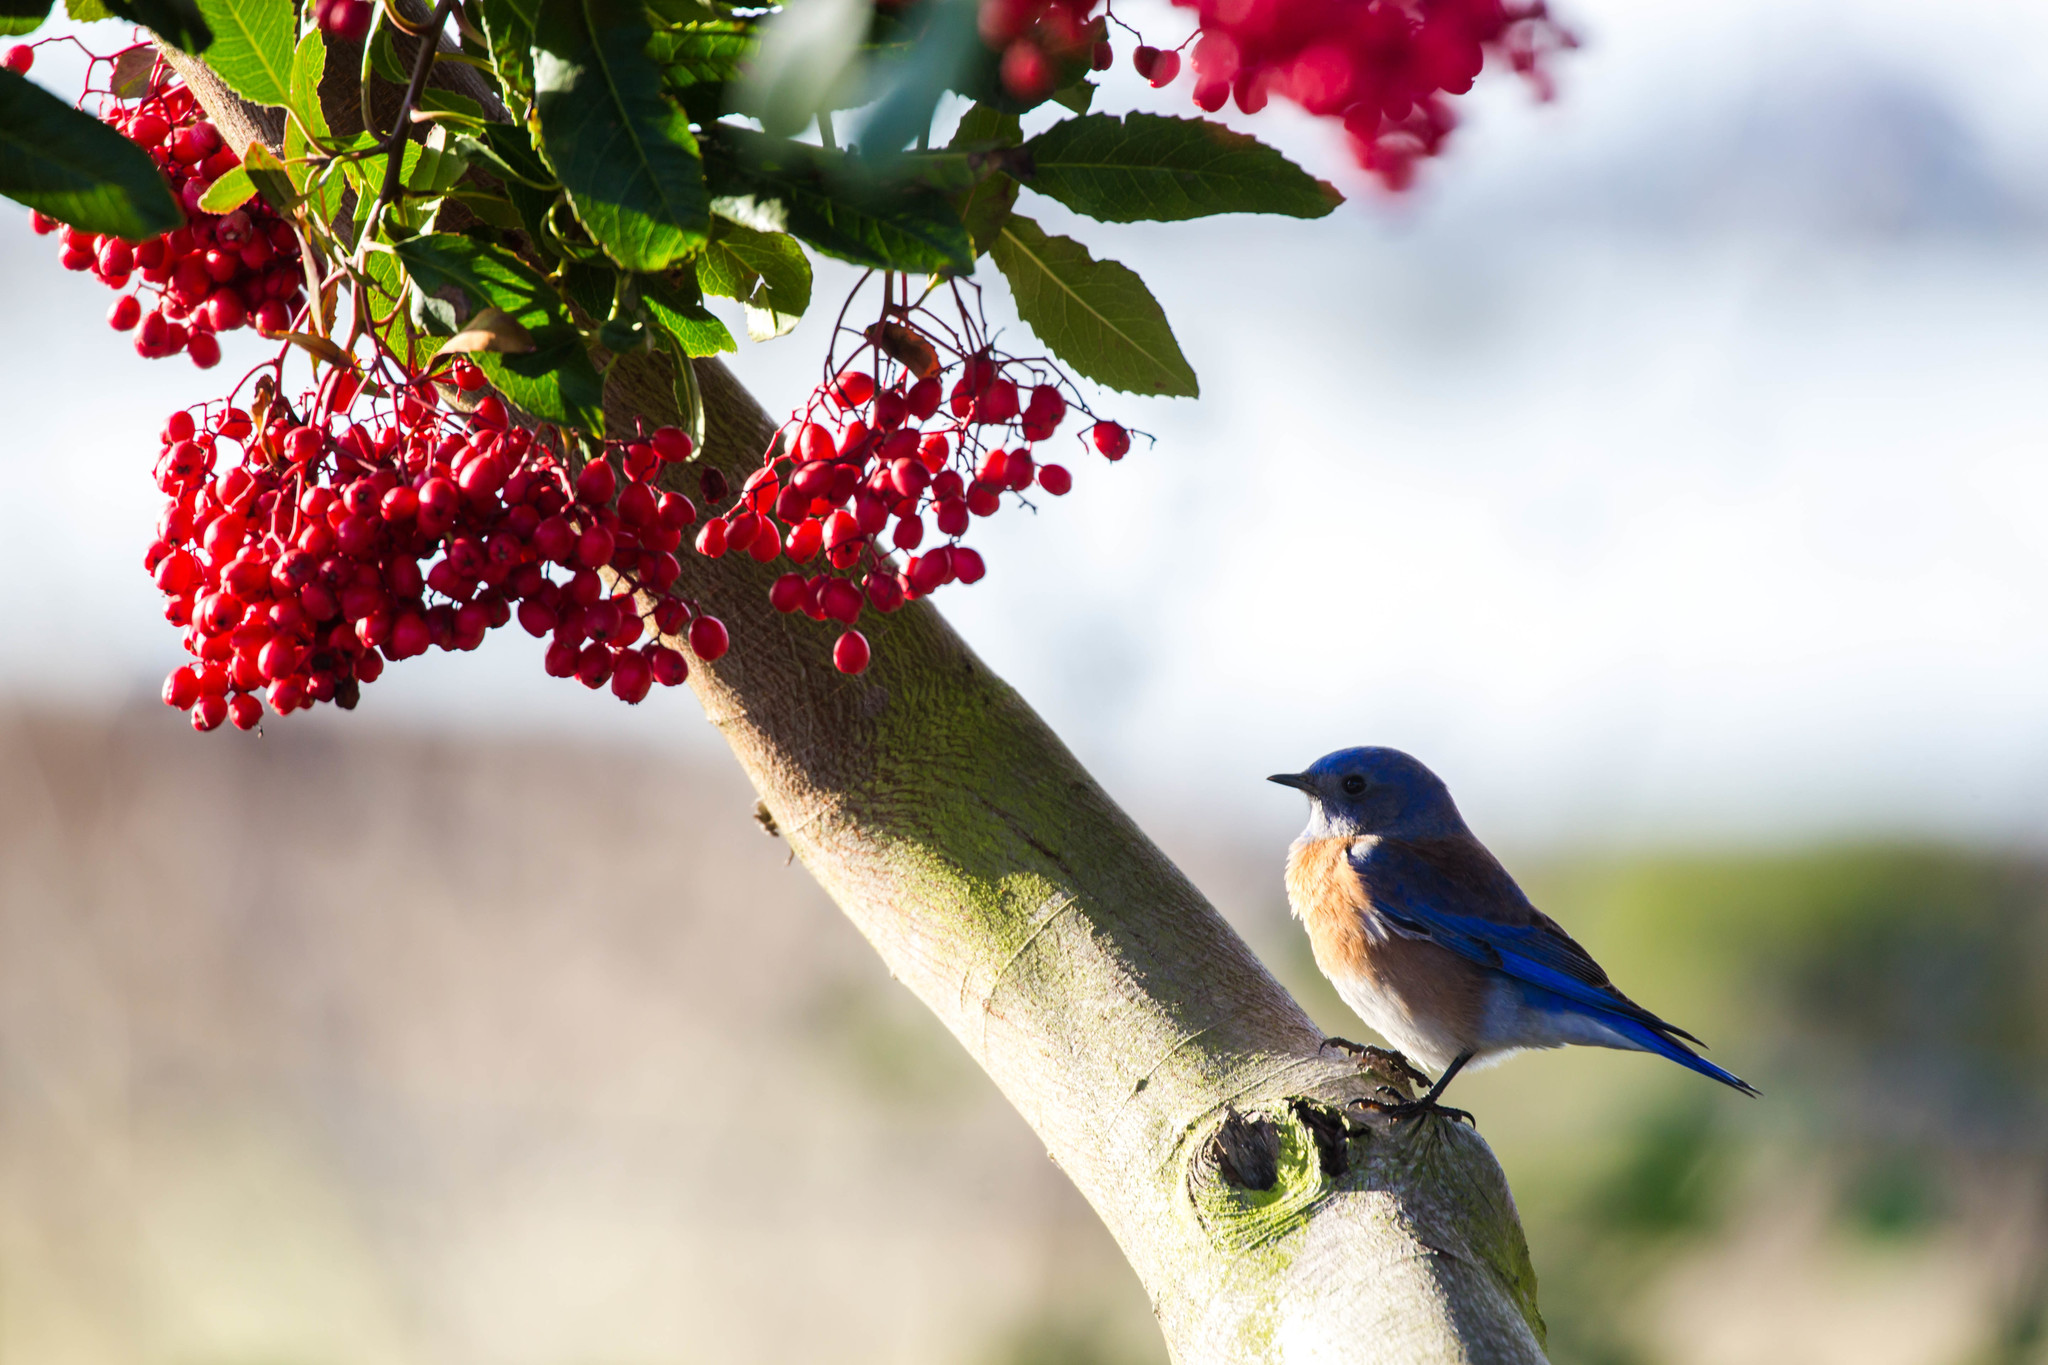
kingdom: Animalia
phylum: Chordata
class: Aves
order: Passeriformes
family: Turdidae
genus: Sialia
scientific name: Sialia mexicana
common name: Western bluebird
